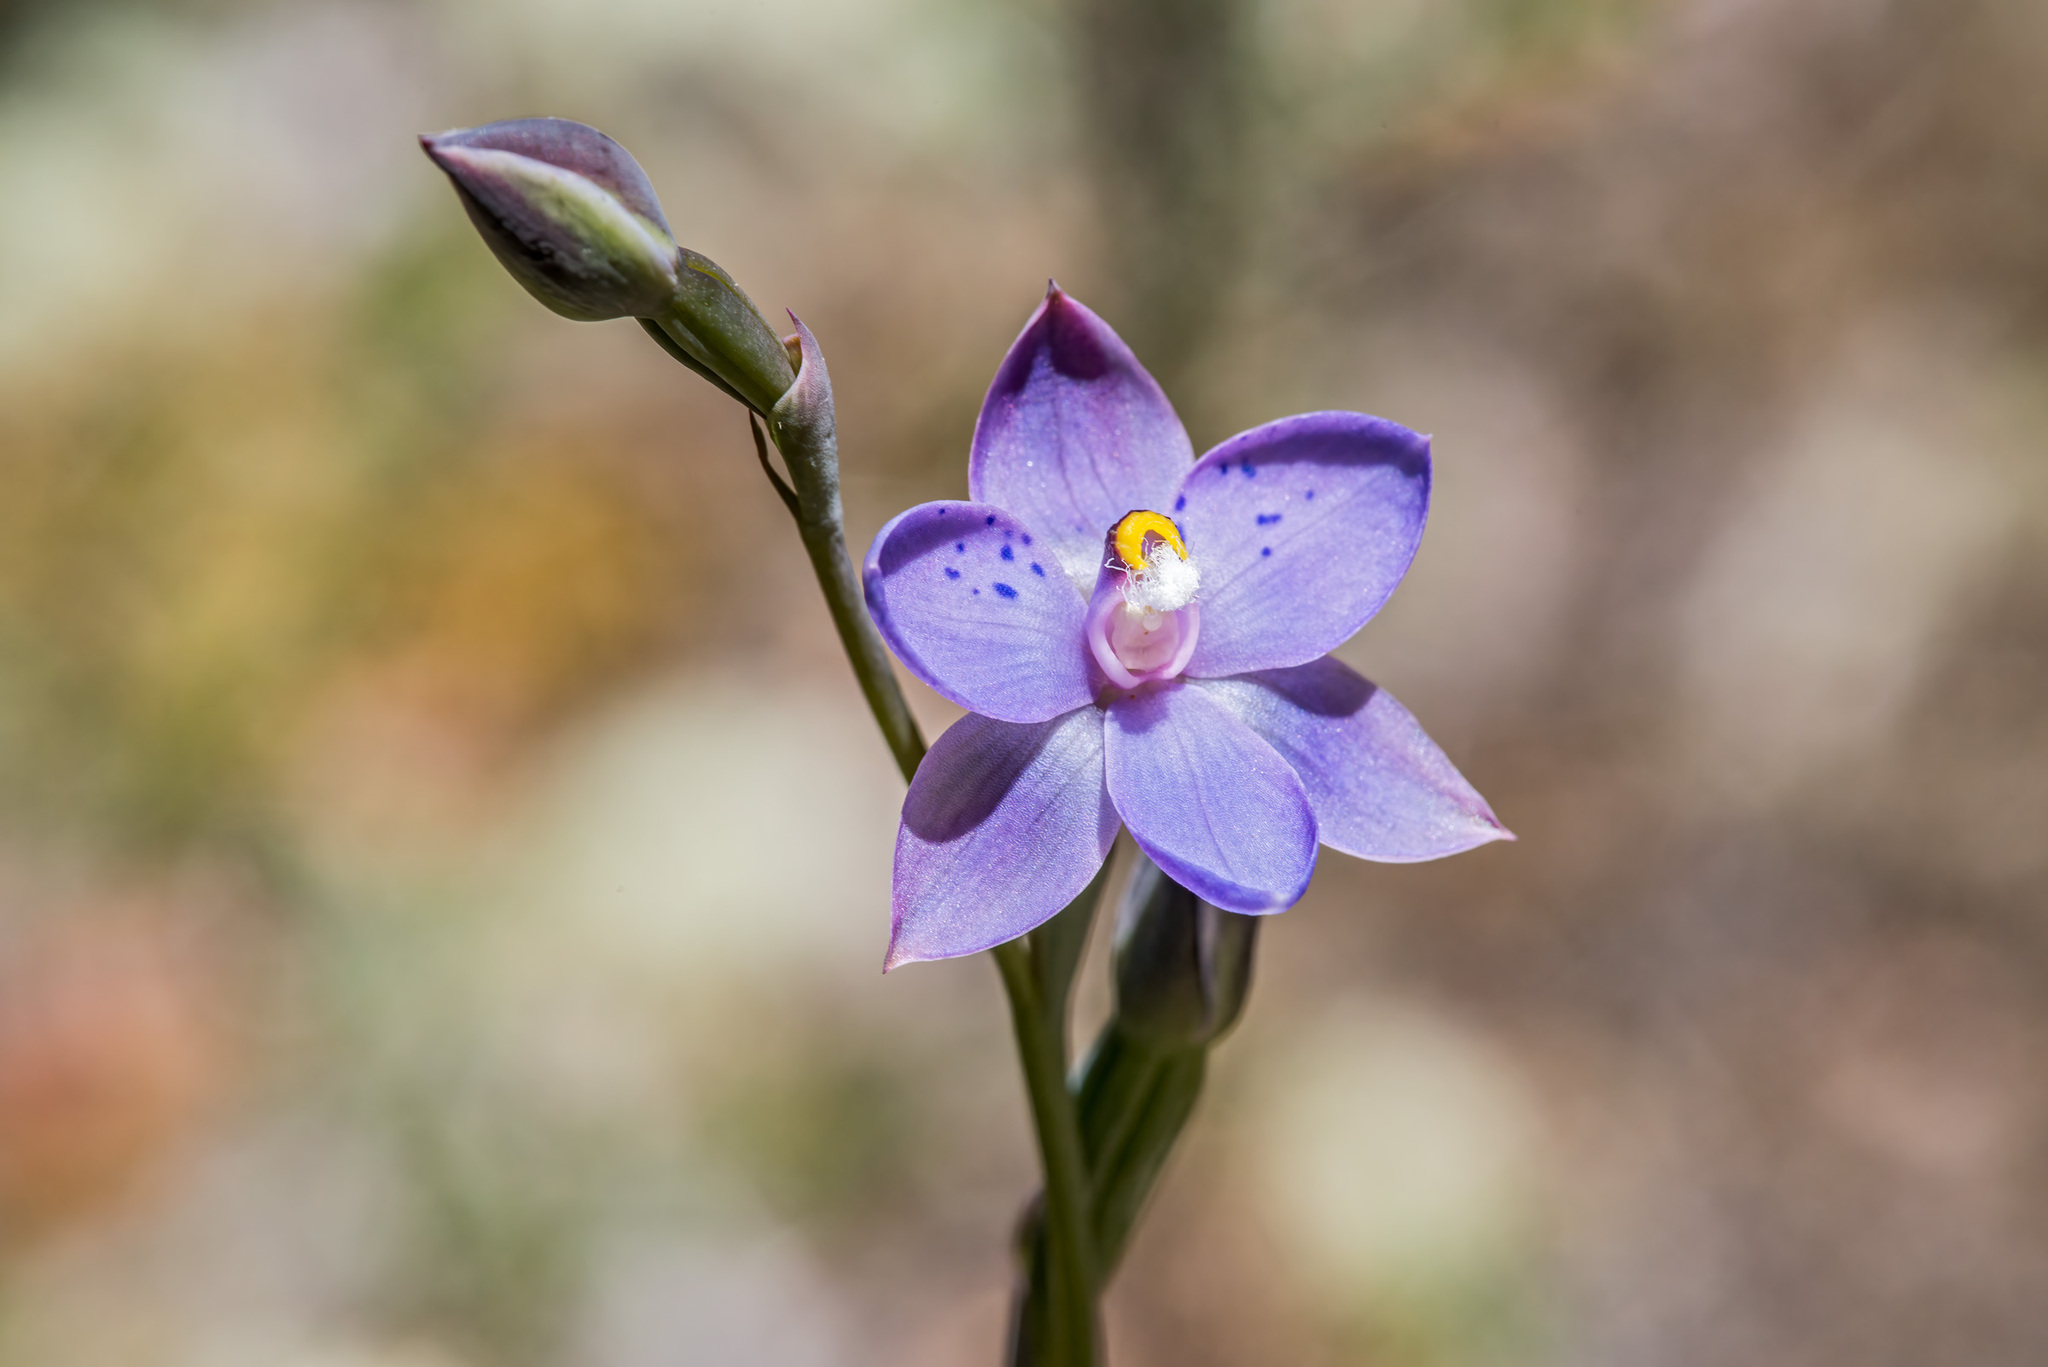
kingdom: Plantae
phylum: Tracheophyta
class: Liliopsida
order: Asparagales
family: Orchidaceae
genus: Thelymitra
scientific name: Thelymitra nervosa
